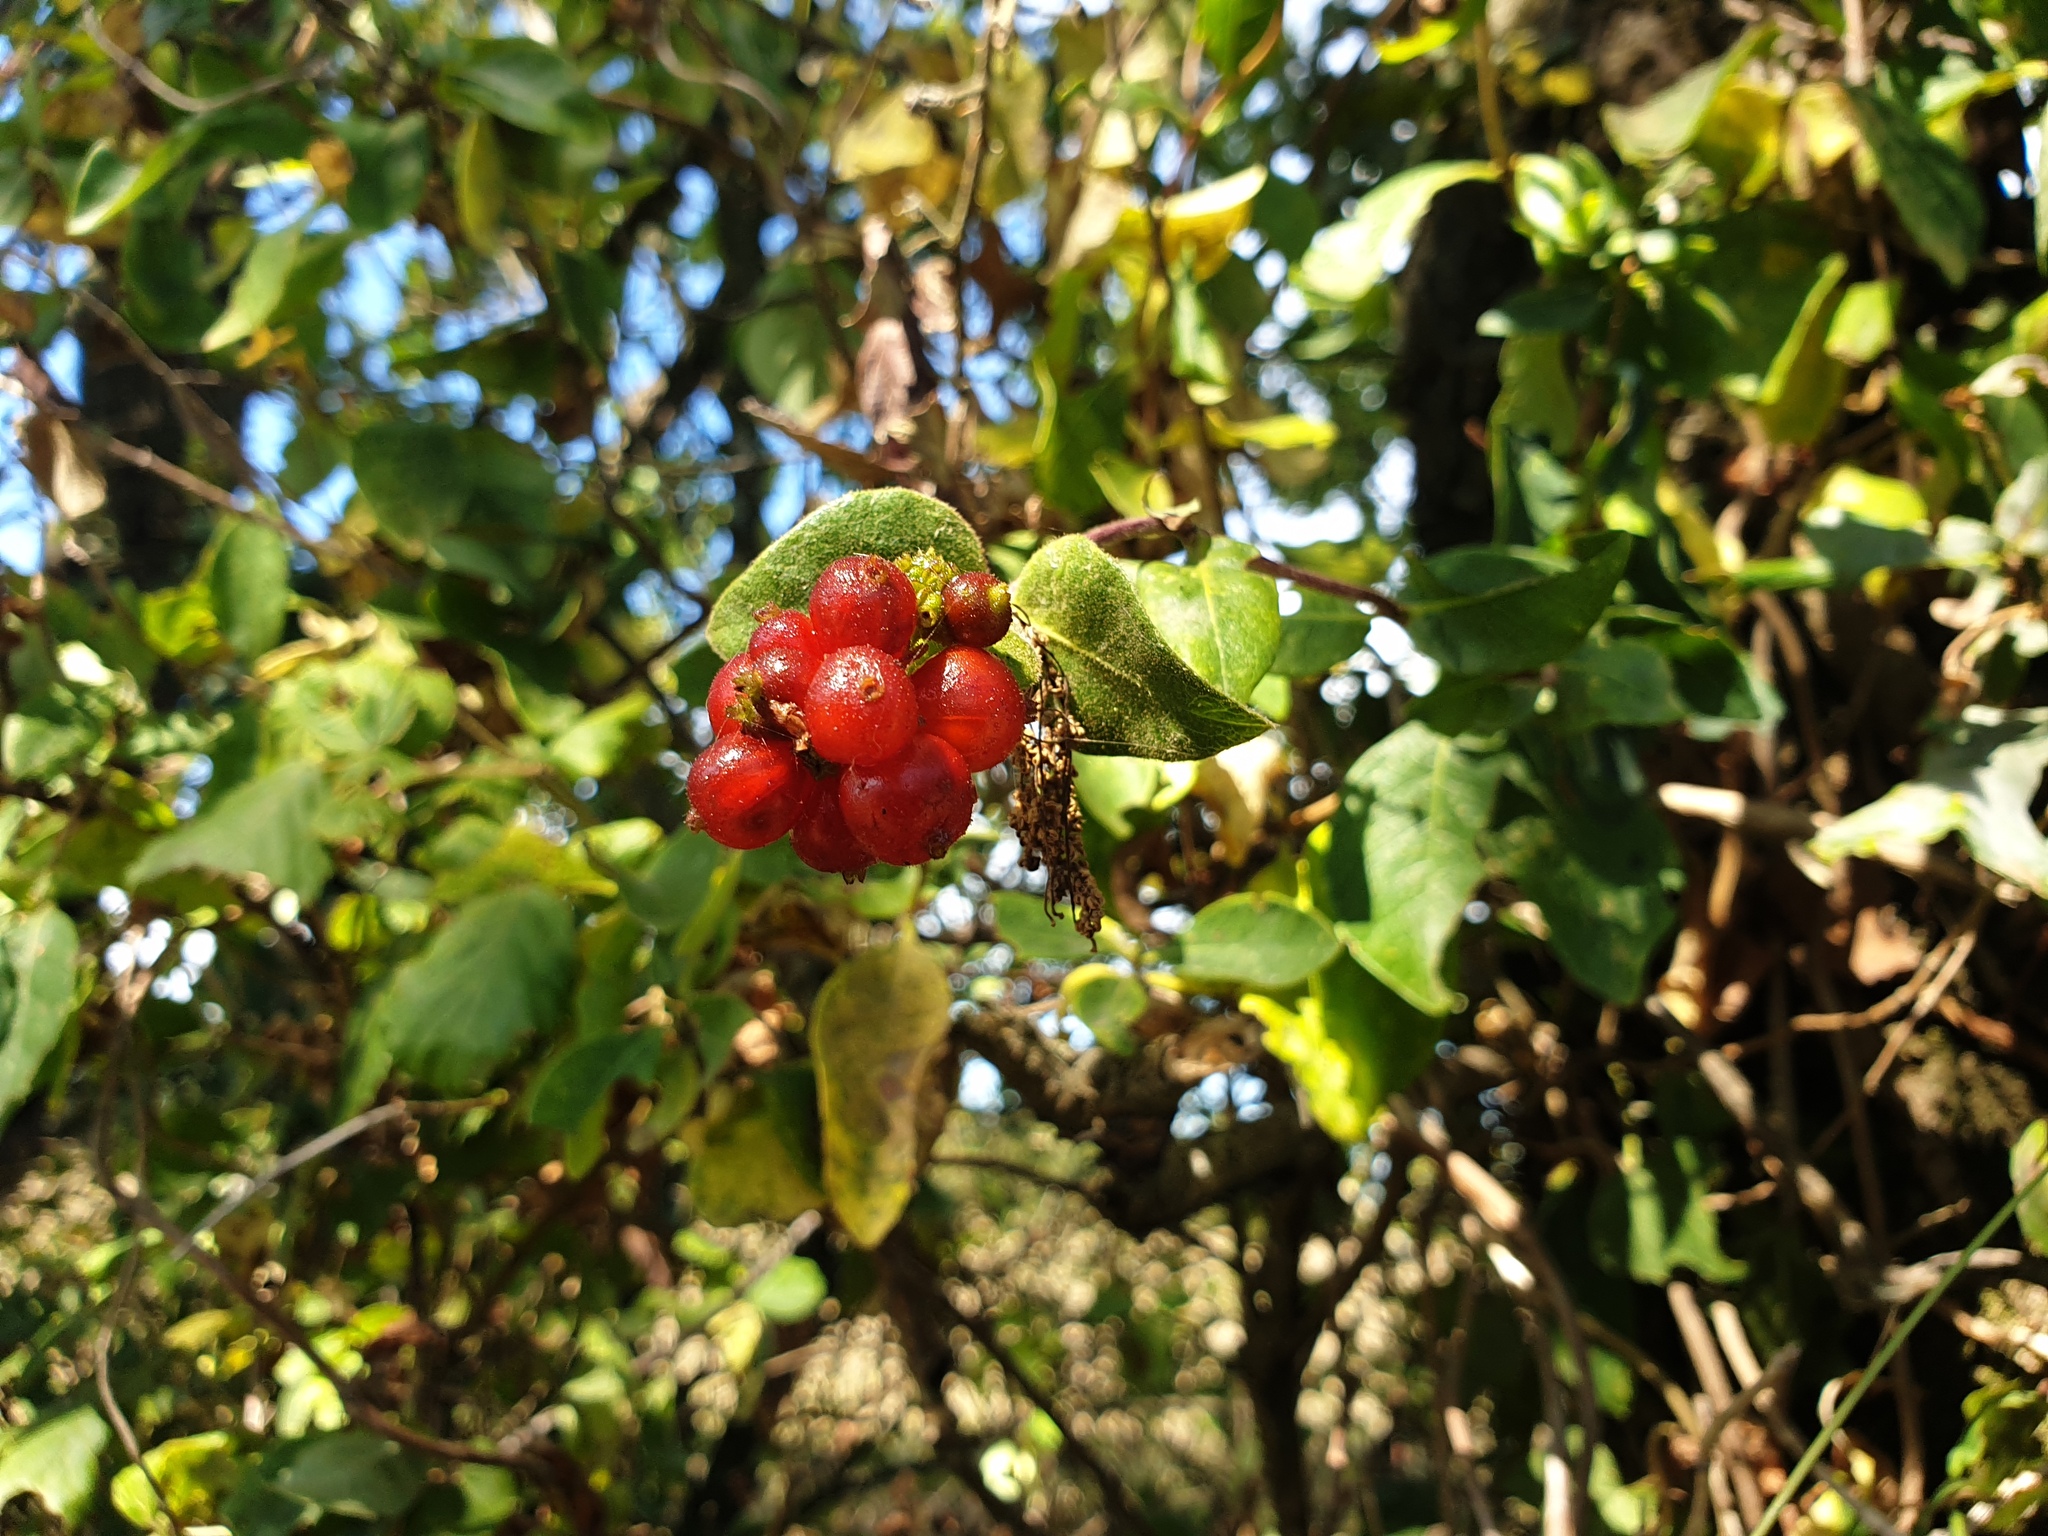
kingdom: Plantae
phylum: Tracheophyta
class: Magnoliopsida
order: Dipsacales
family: Caprifoliaceae
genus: Lonicera
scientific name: Lonicera periclymenum
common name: European honeysuckle
